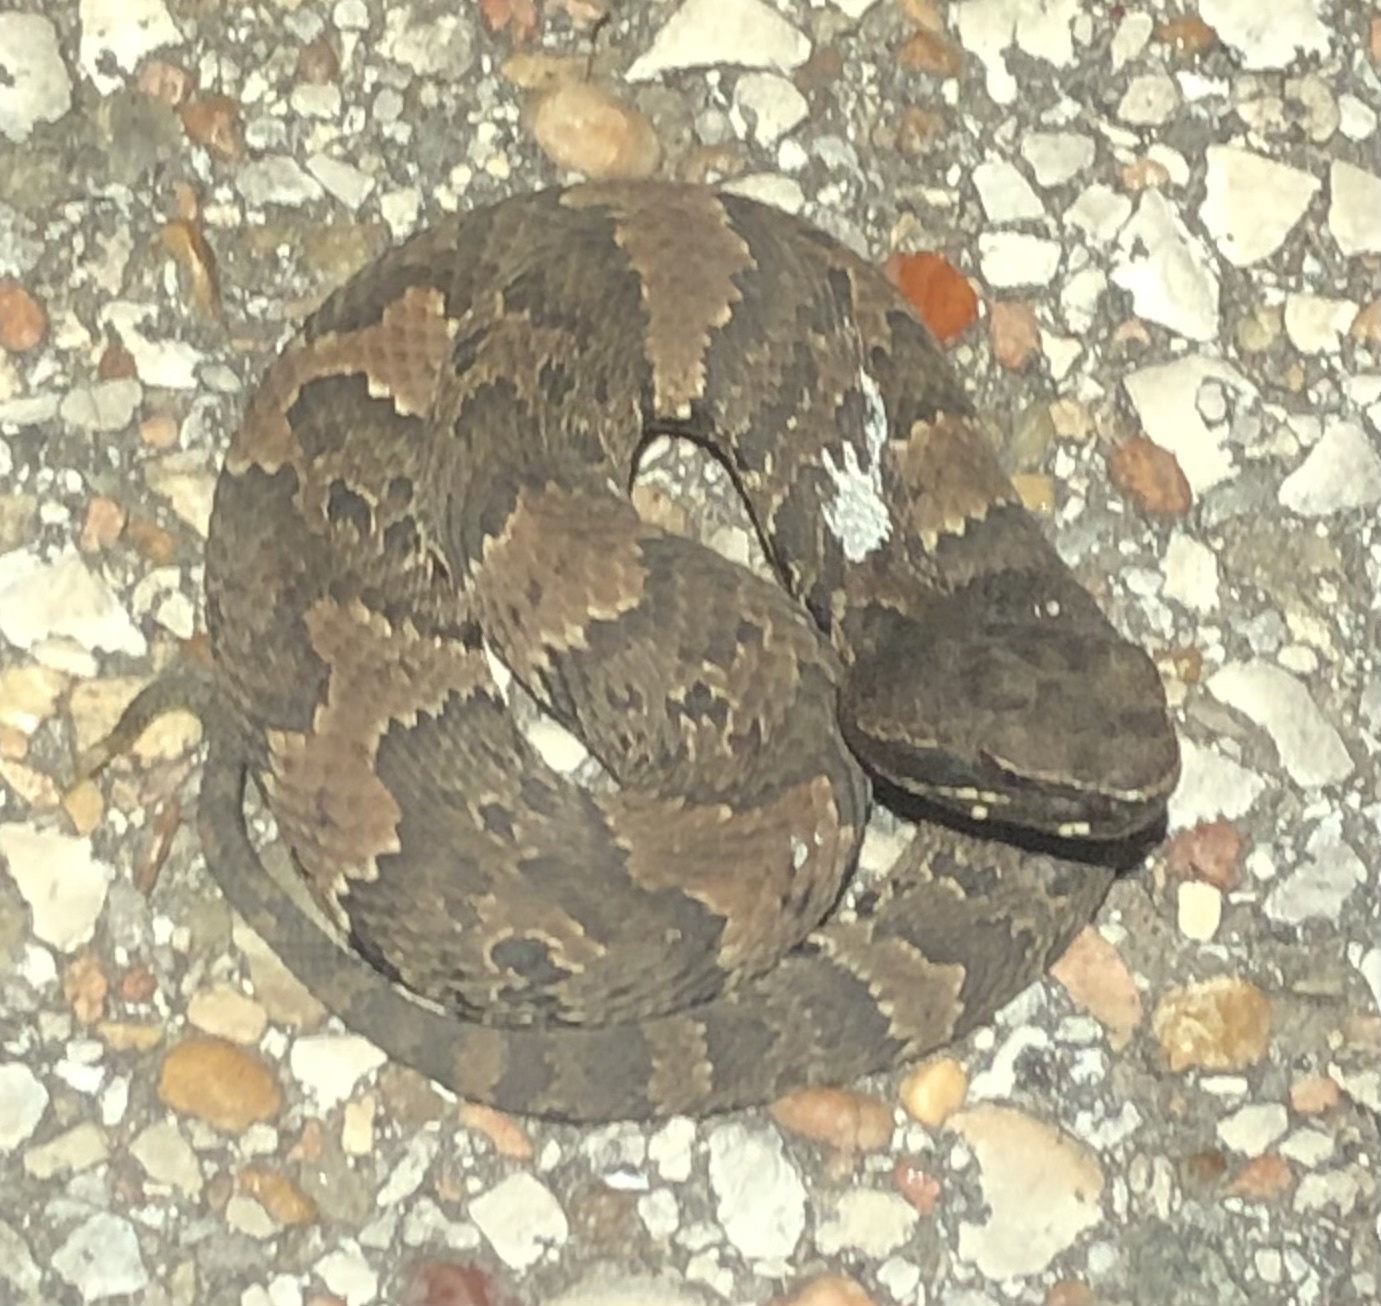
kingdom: Animalia
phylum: Chordata
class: Squamata
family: Viperidae
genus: Agkistrodon
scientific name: Agkistrodon piscivorus
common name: Cottonmouth
